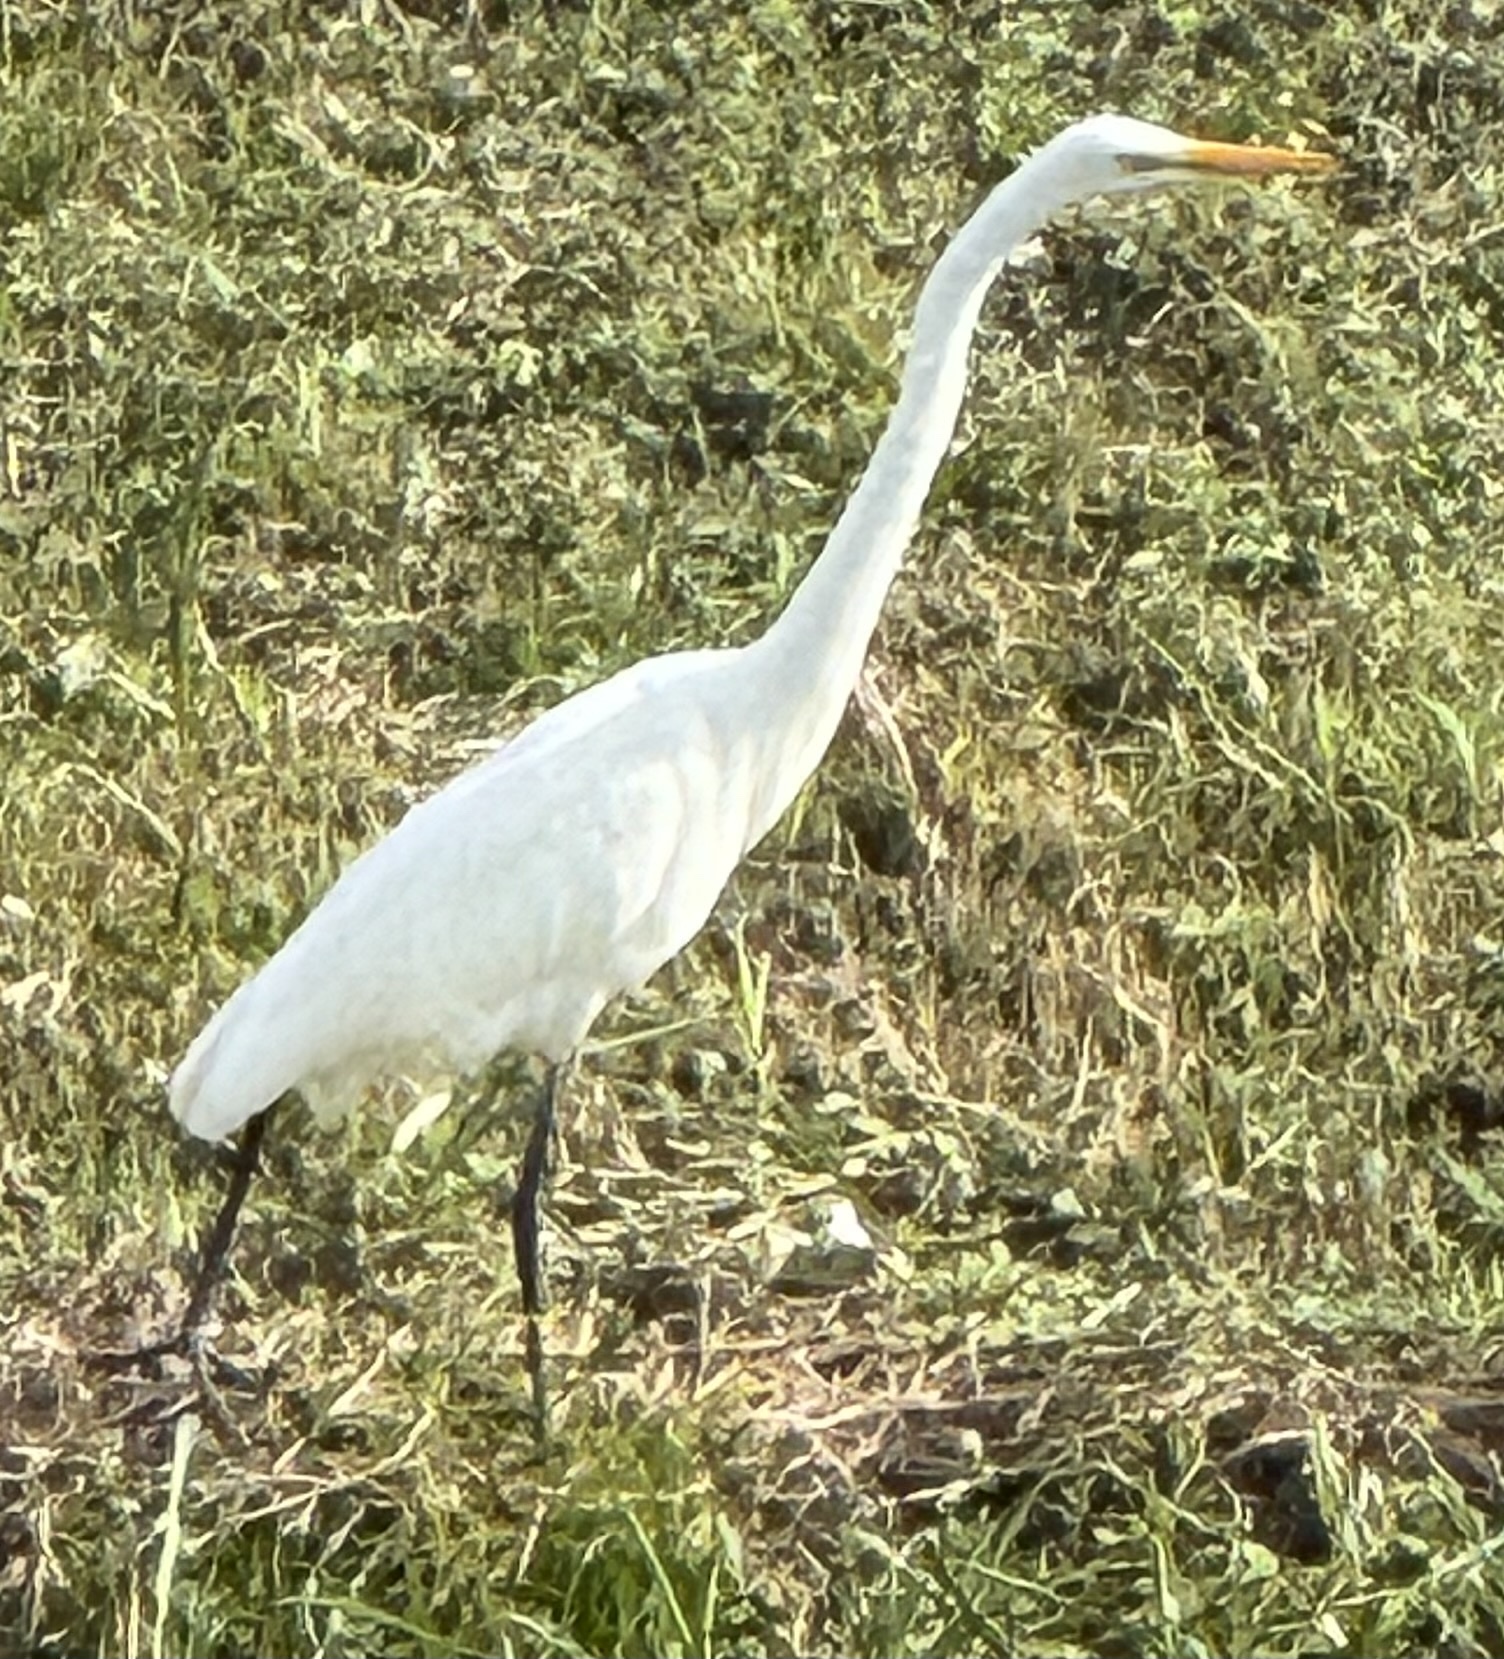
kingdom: Animalia
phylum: Chordata
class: Aves
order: Pelecaniformes
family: Ardeidae
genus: Ardea
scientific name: Ardea alba
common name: Great egret
